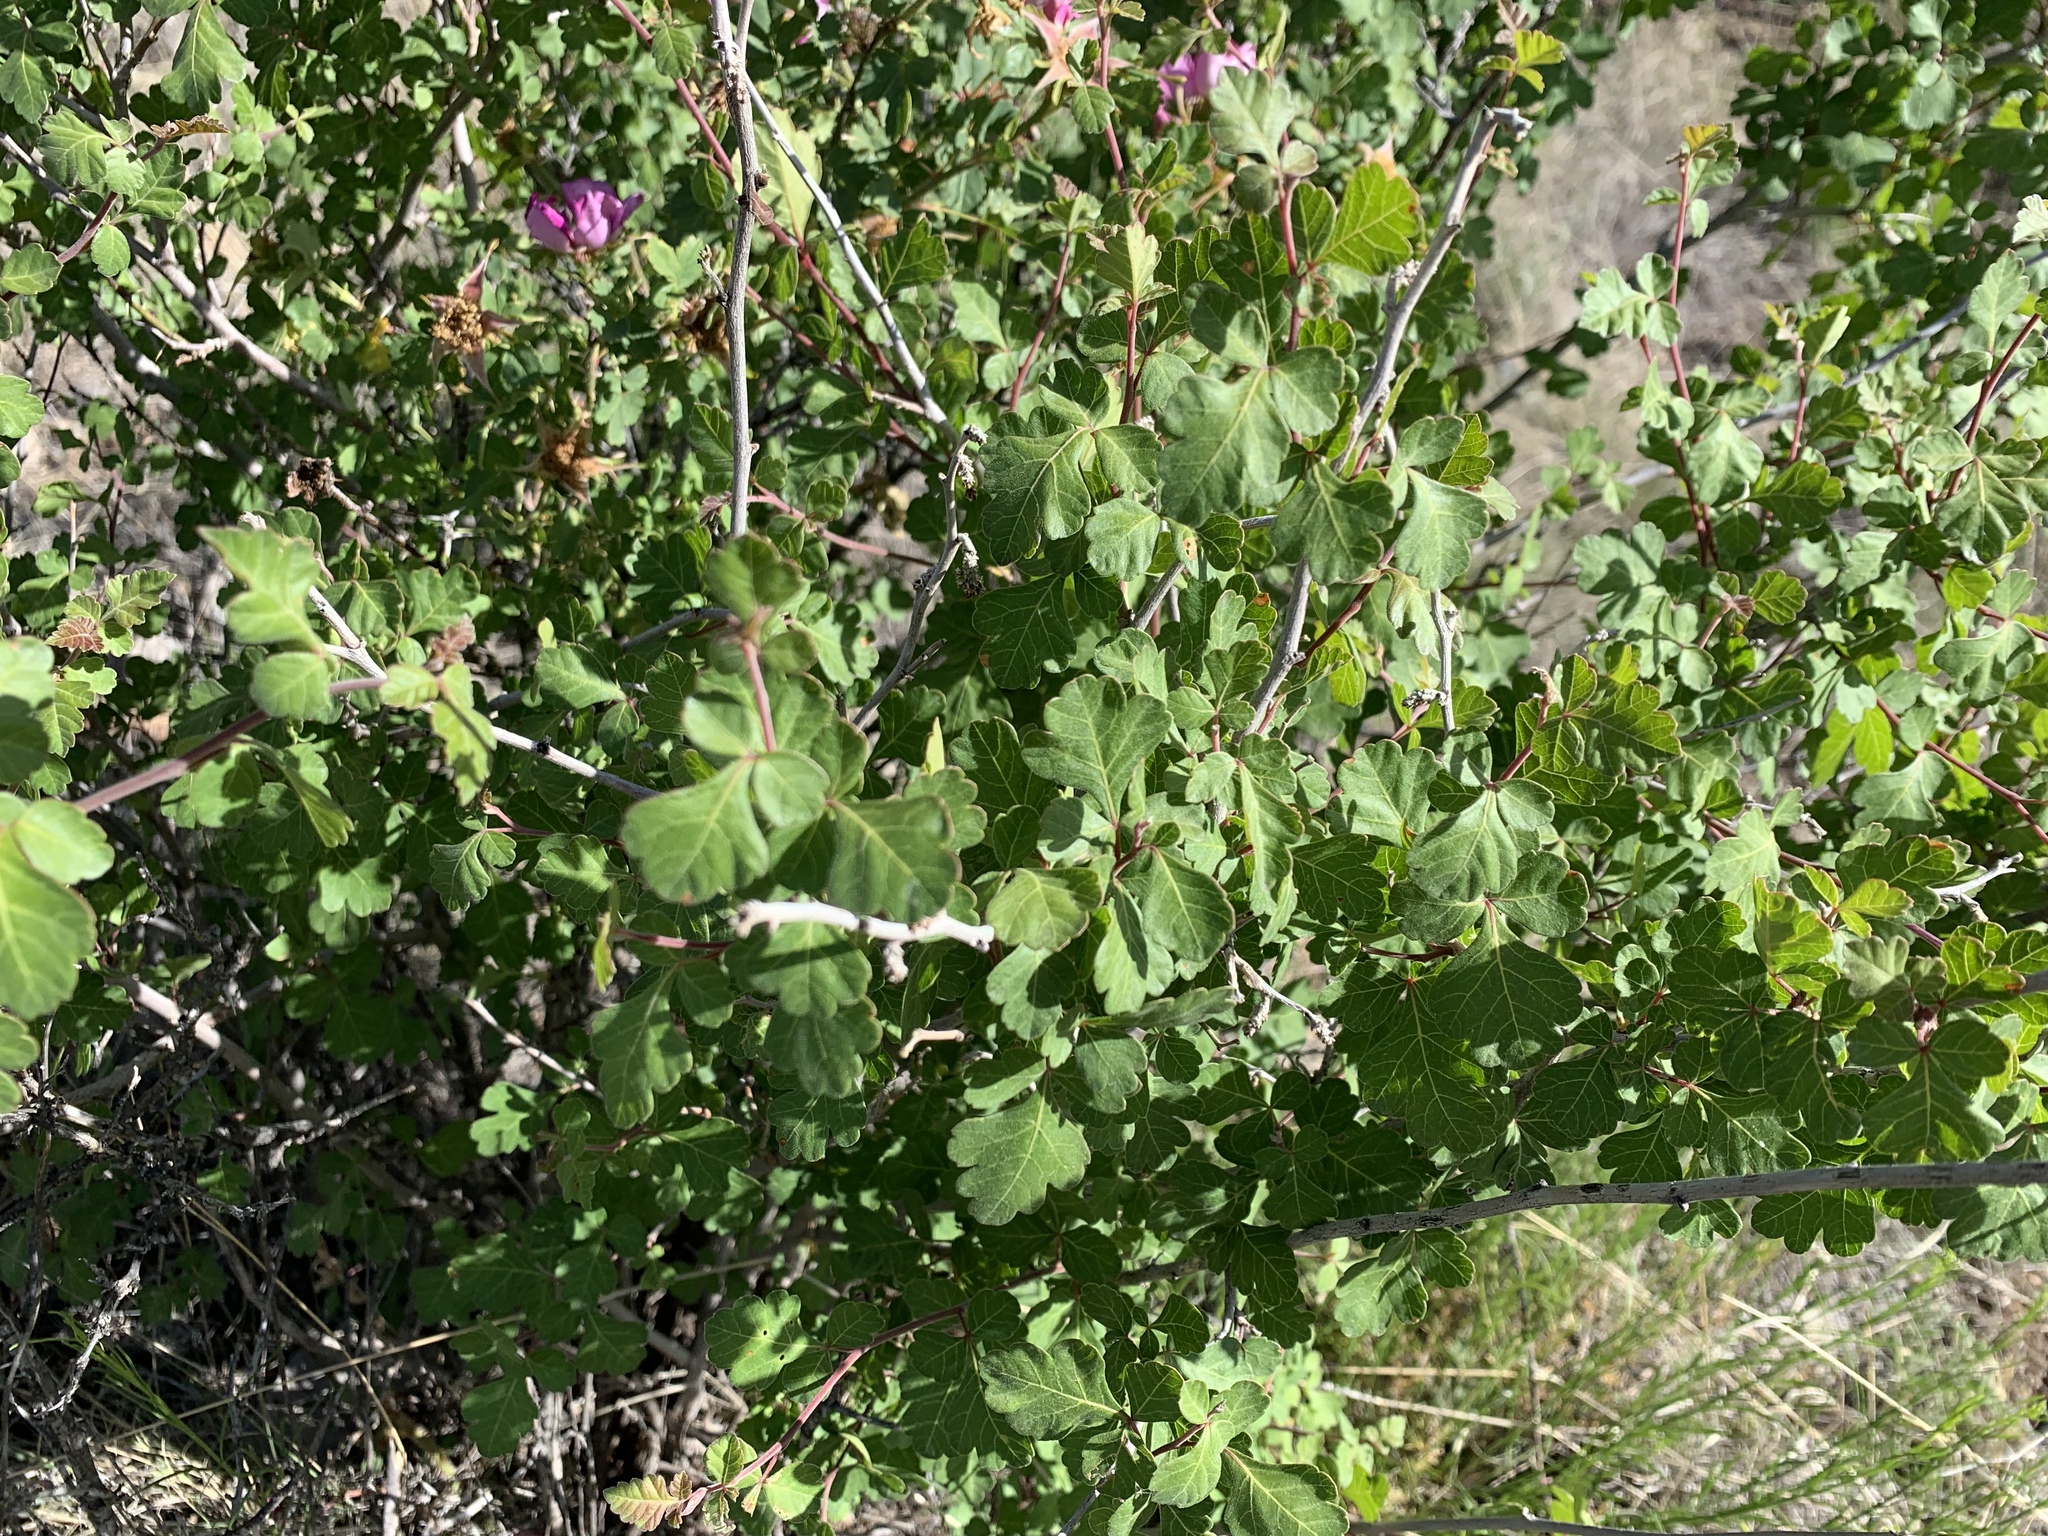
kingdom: Plantae
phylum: Tracheophyta
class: Magnoliopsida
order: Sapindales
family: Anacardiaceae
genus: Rhus
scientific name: Rhus aromatica
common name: Aromatic sumac
